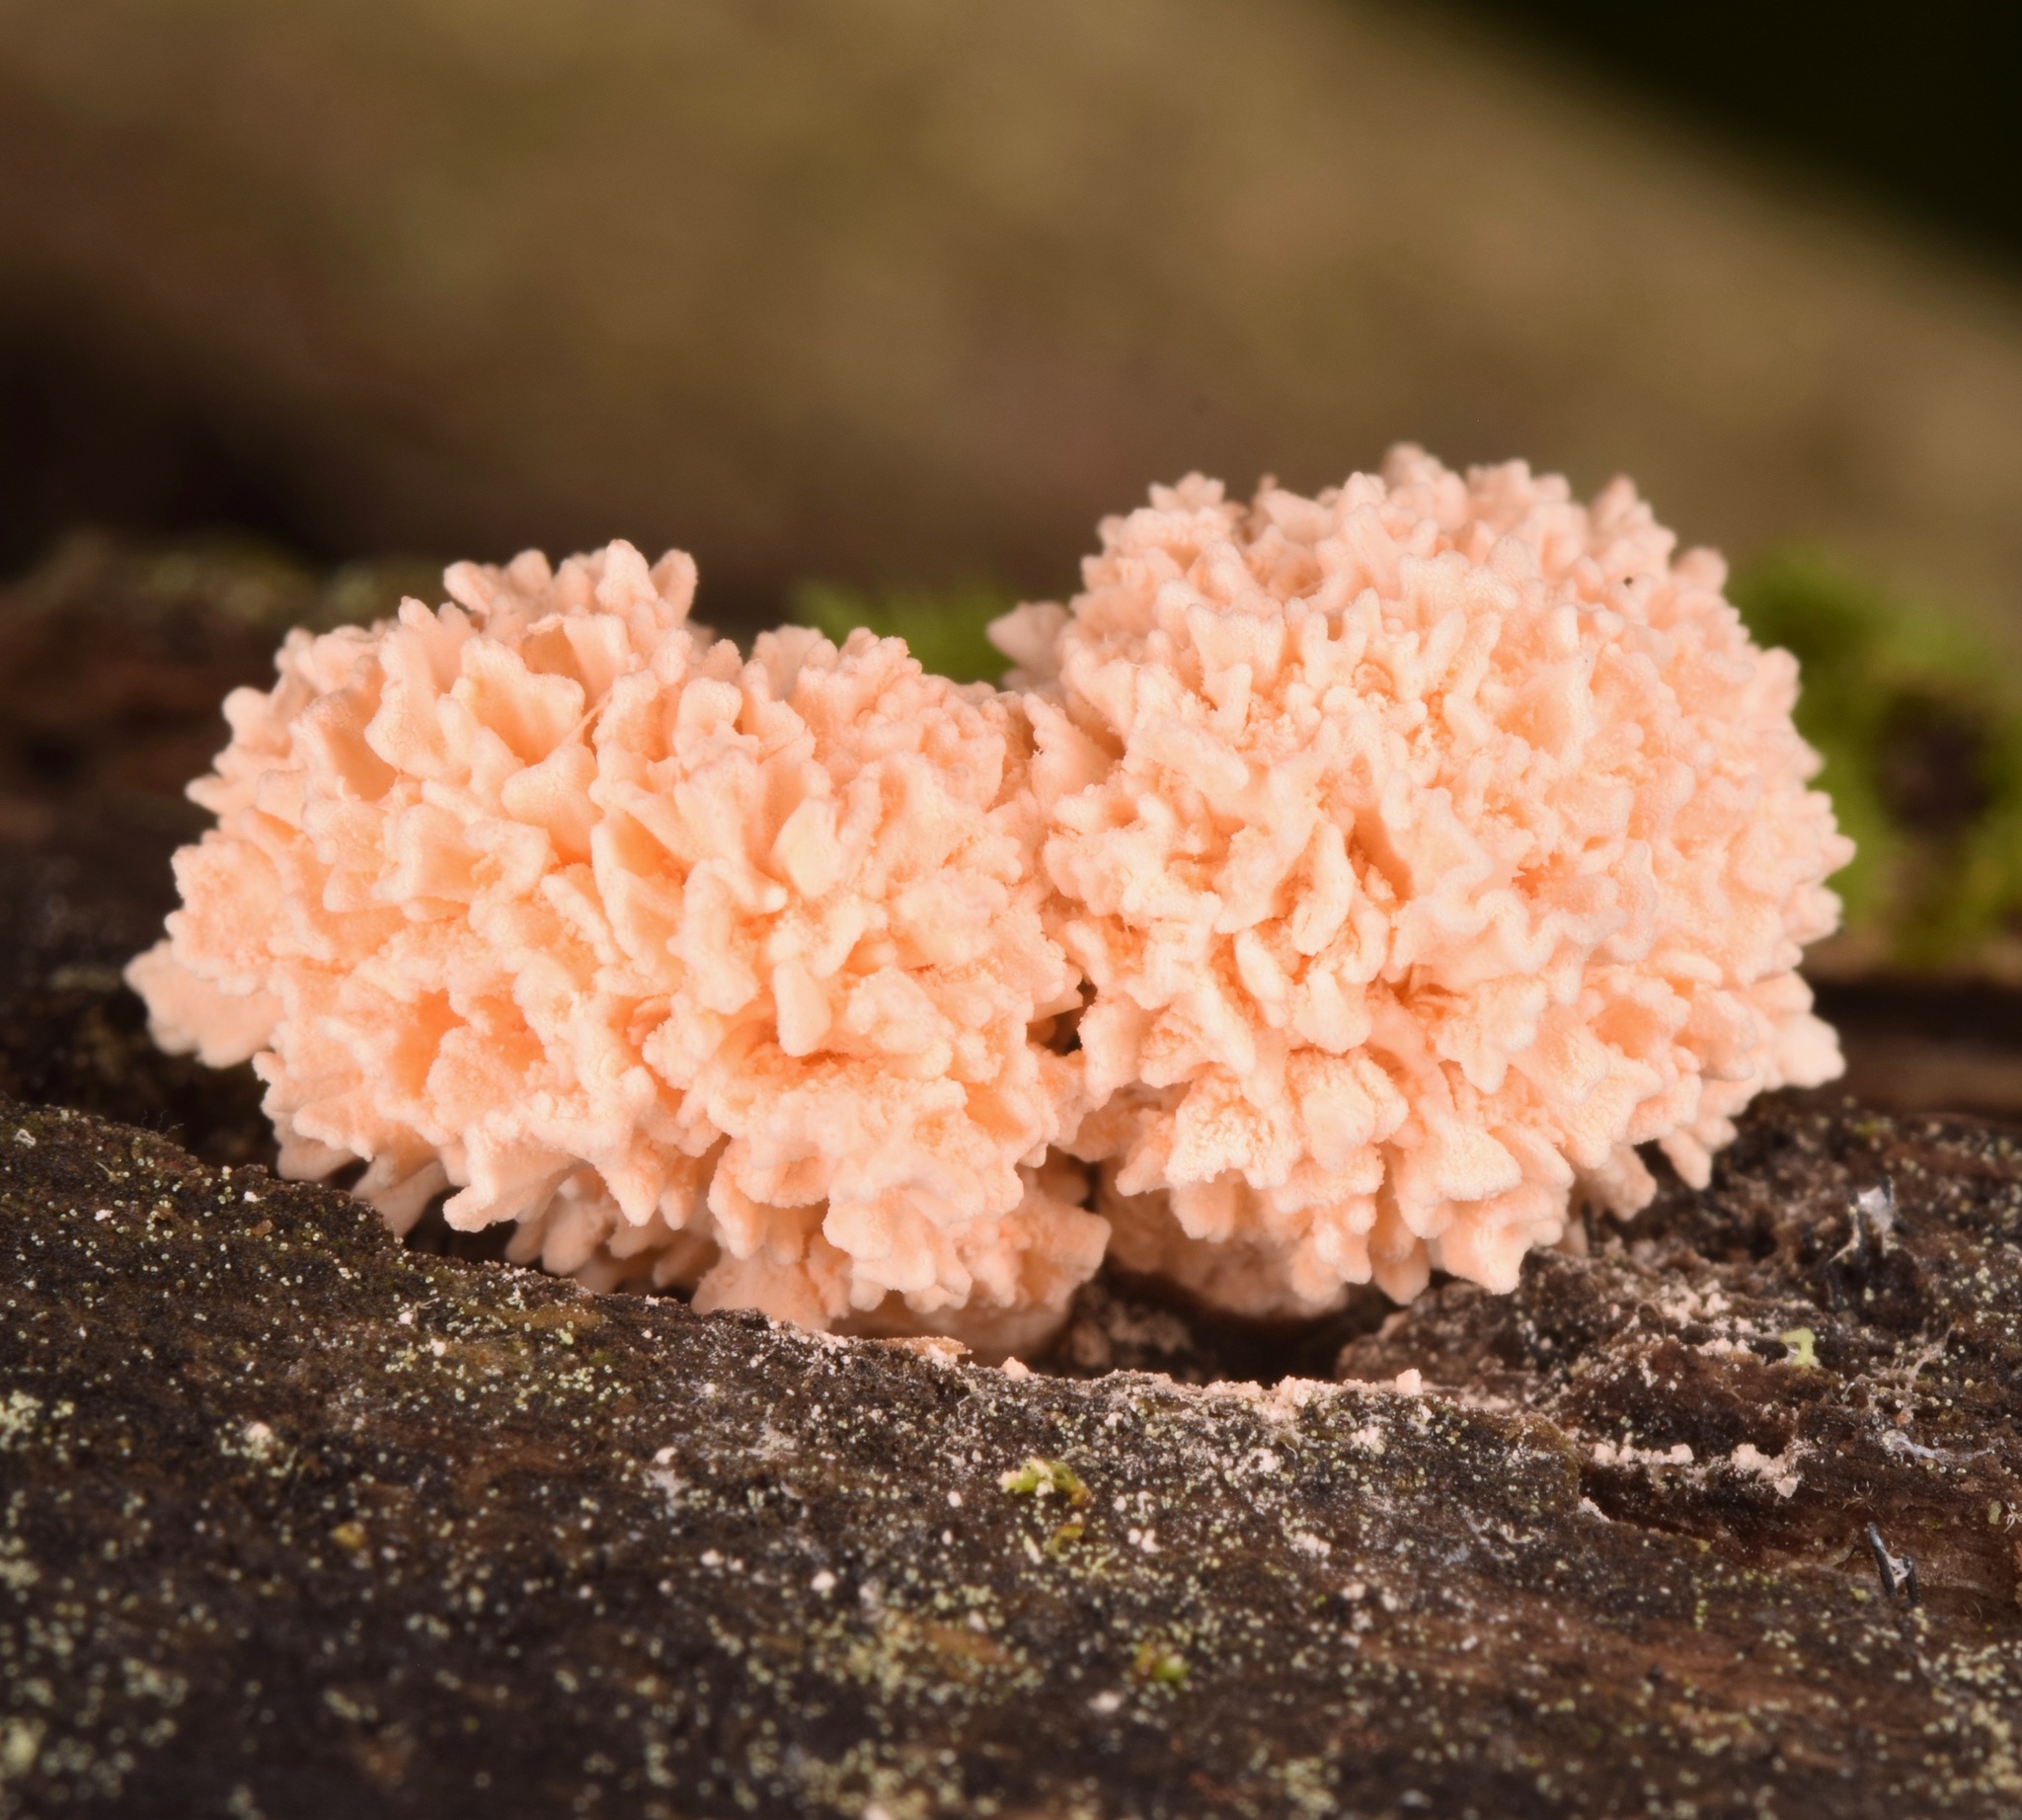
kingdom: Fungi
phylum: Ascomycota
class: Sordariomycetes
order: Xylariales
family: Xylariaceae
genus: Xylaria
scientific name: Xylaria cubensis
